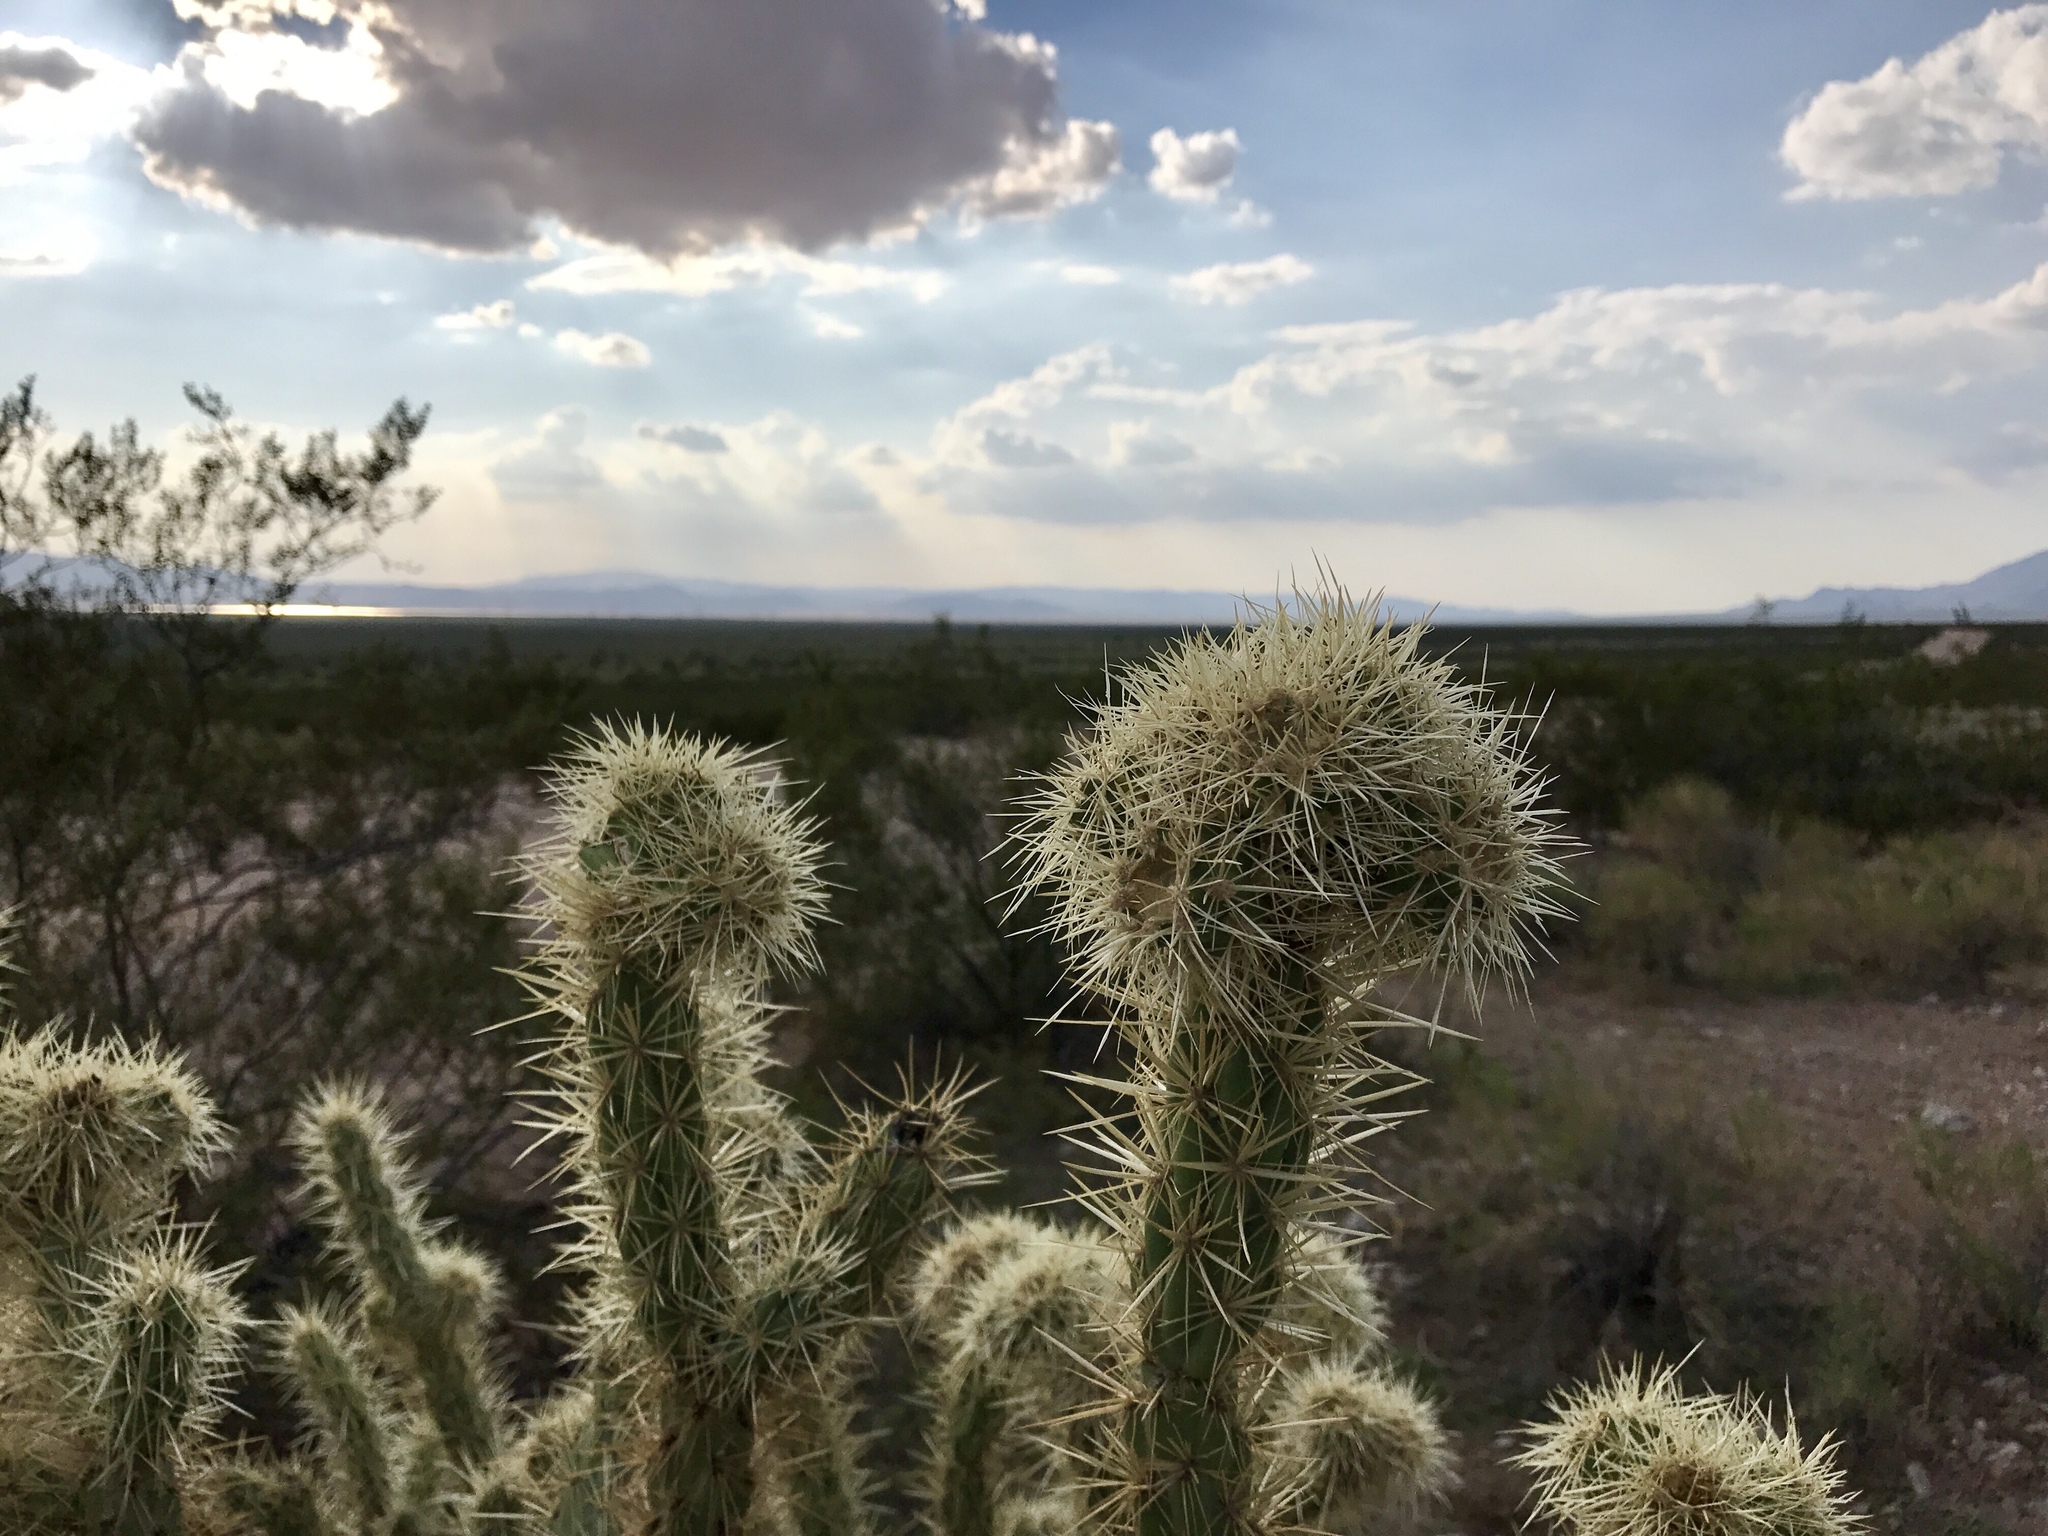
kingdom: Plantae
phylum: Tracheophyta
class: Magnoliopsida
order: Caryophyllales
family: Cactaceae
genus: Cylindropuntia
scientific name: Cylindropuntia echinocarpa
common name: Ground cholla
